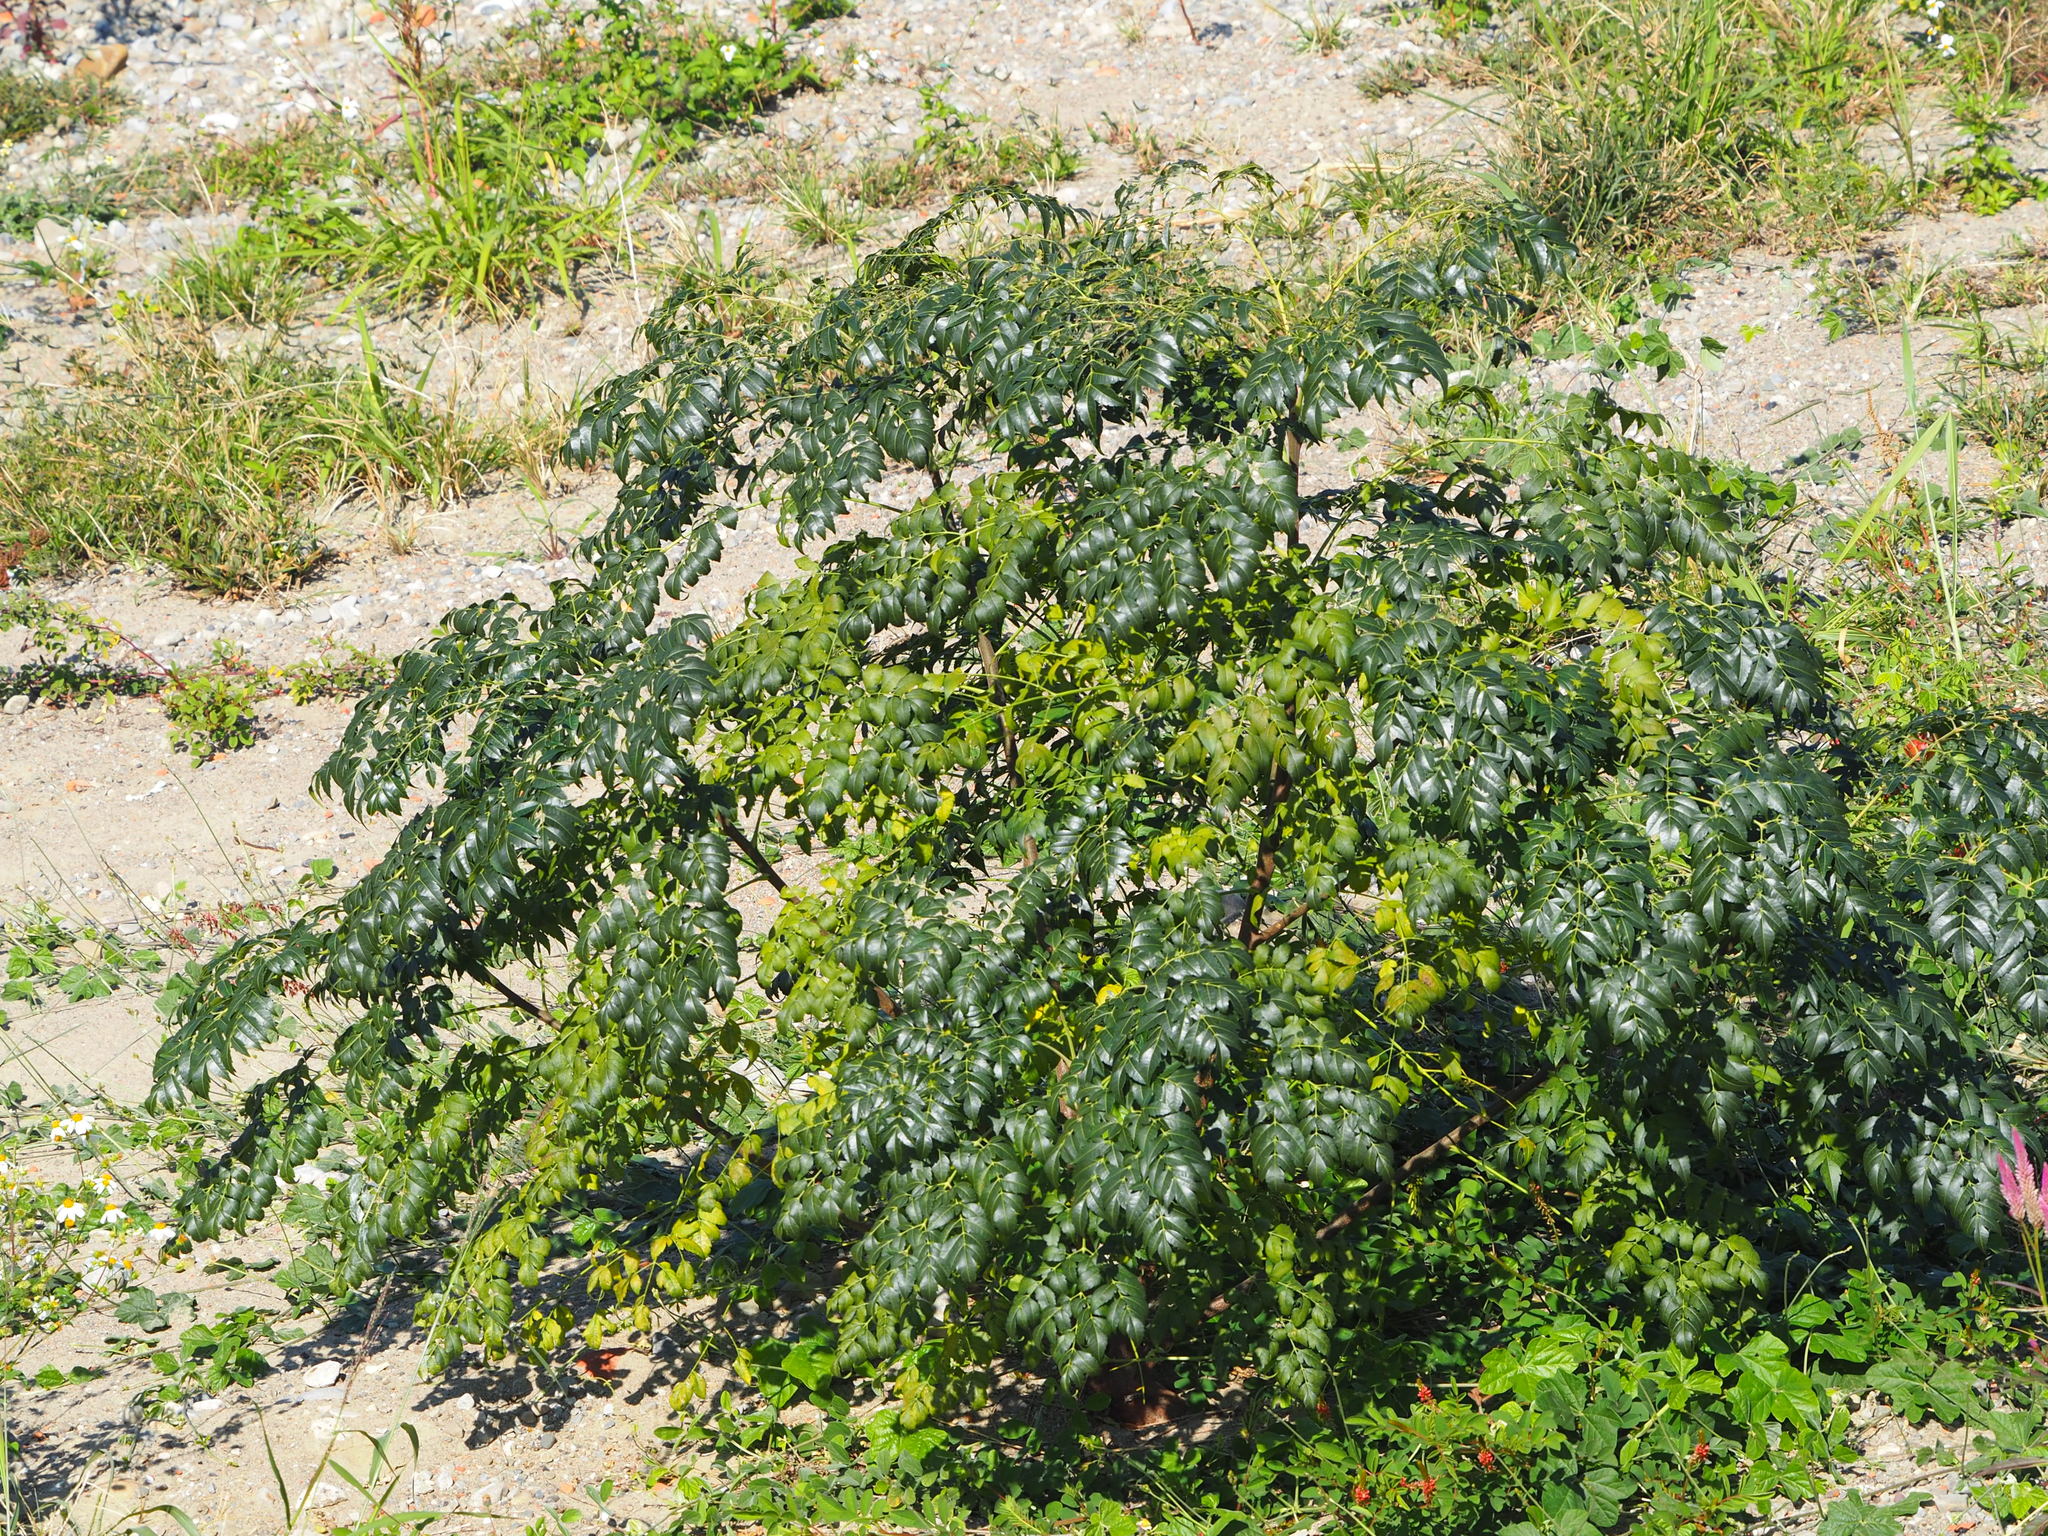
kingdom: Plantae
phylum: Tracheophyta
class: Magnoliopsida
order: Sapindales
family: Meliaceae
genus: Melia
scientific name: Melia azedarach
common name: Chinaberrytree
